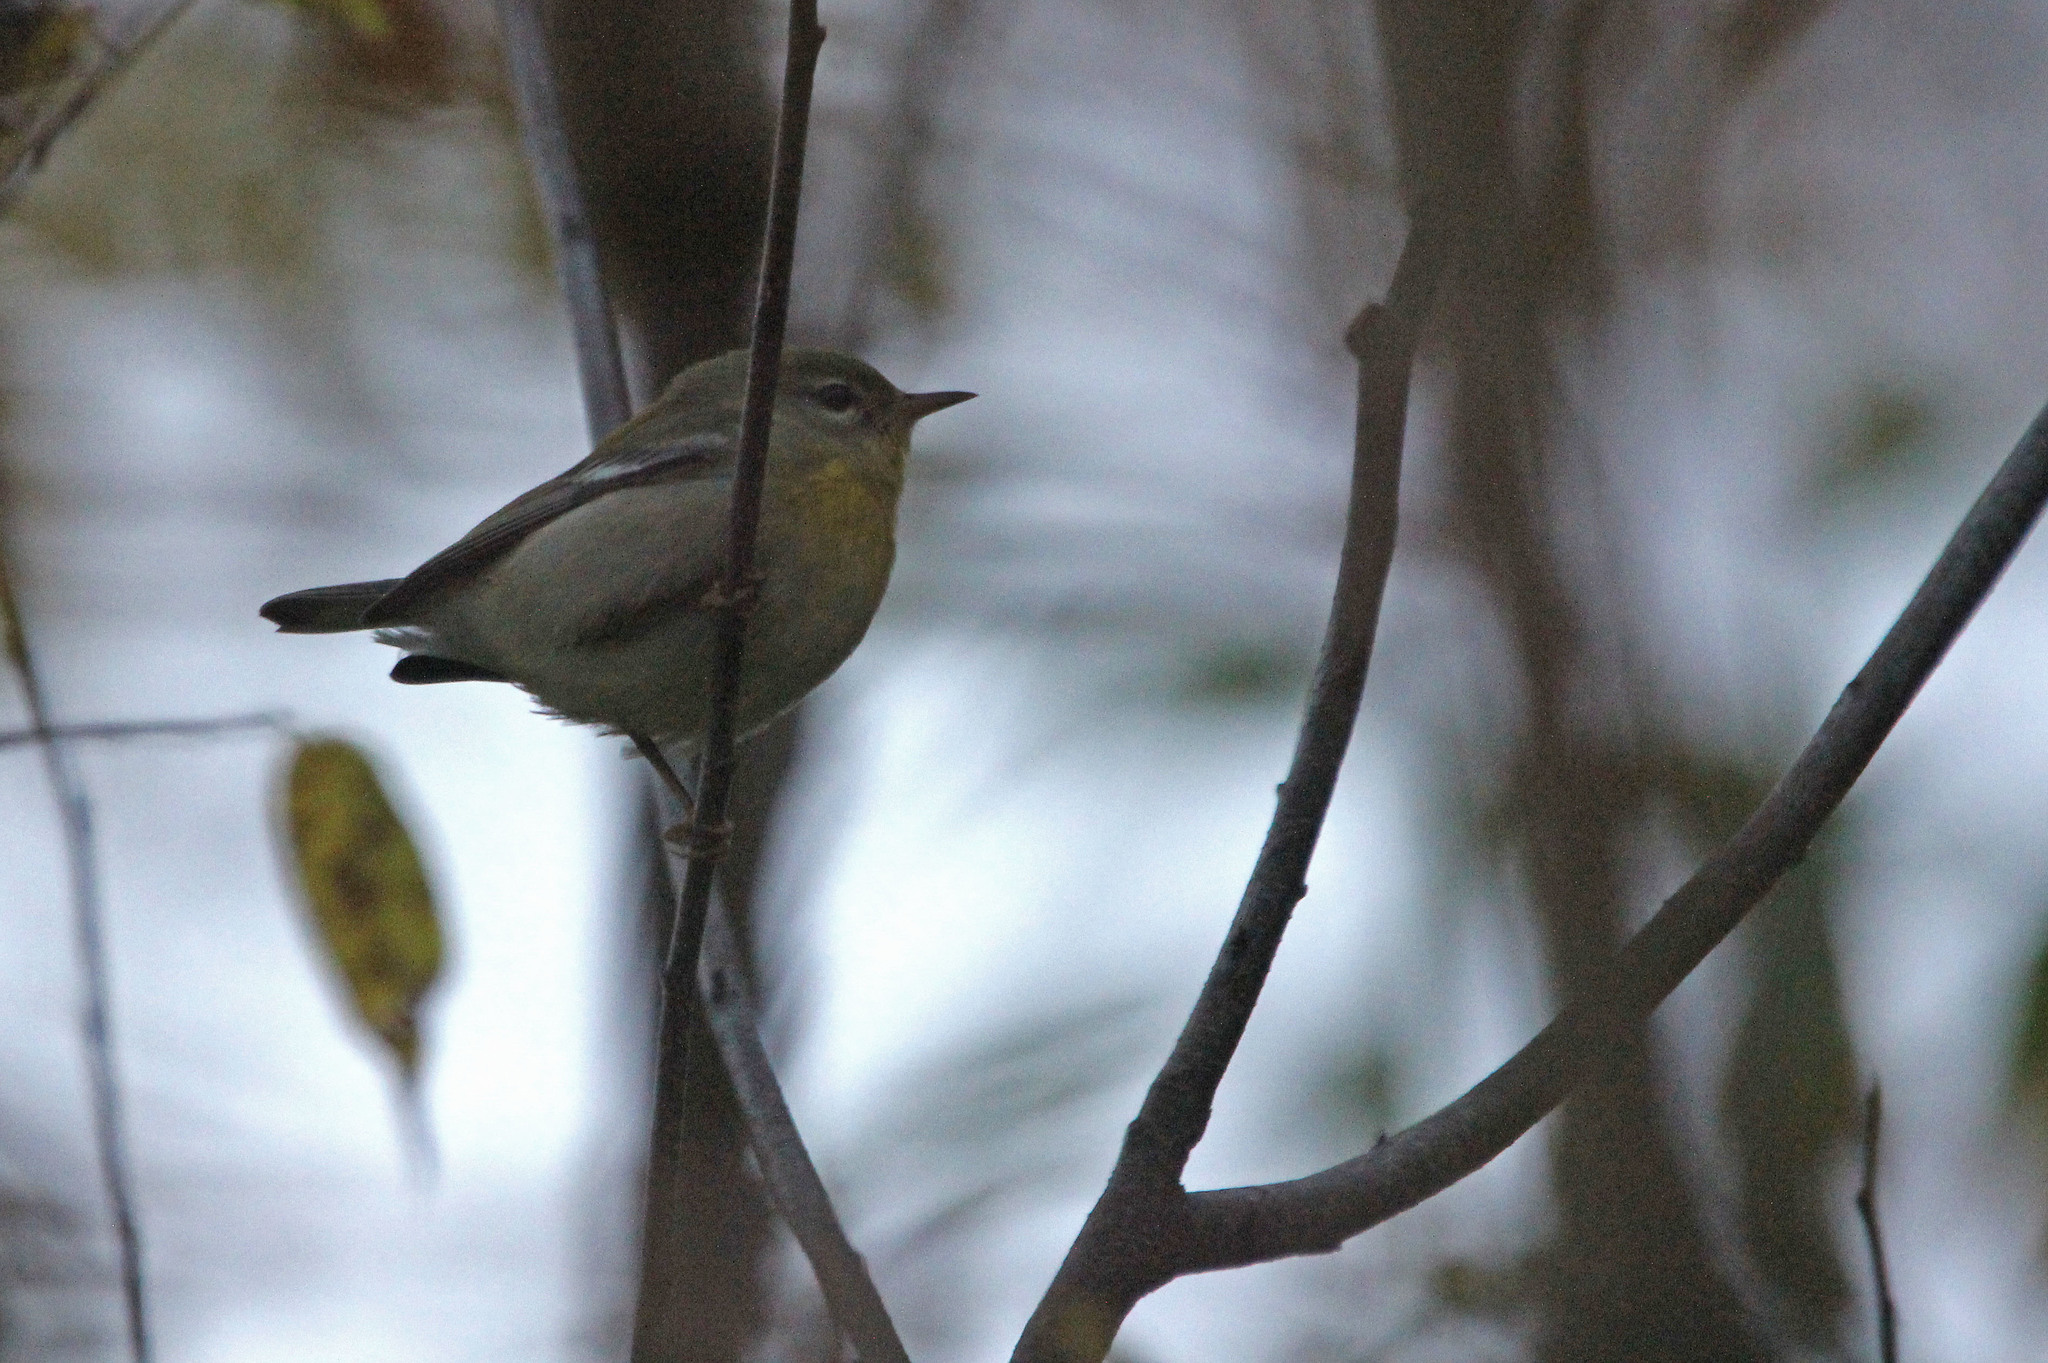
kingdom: Animalia
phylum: Chordata
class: Aves
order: Passeriformes
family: Parulidae
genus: Setophaga
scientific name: Setophaga americana
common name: Northern parula
